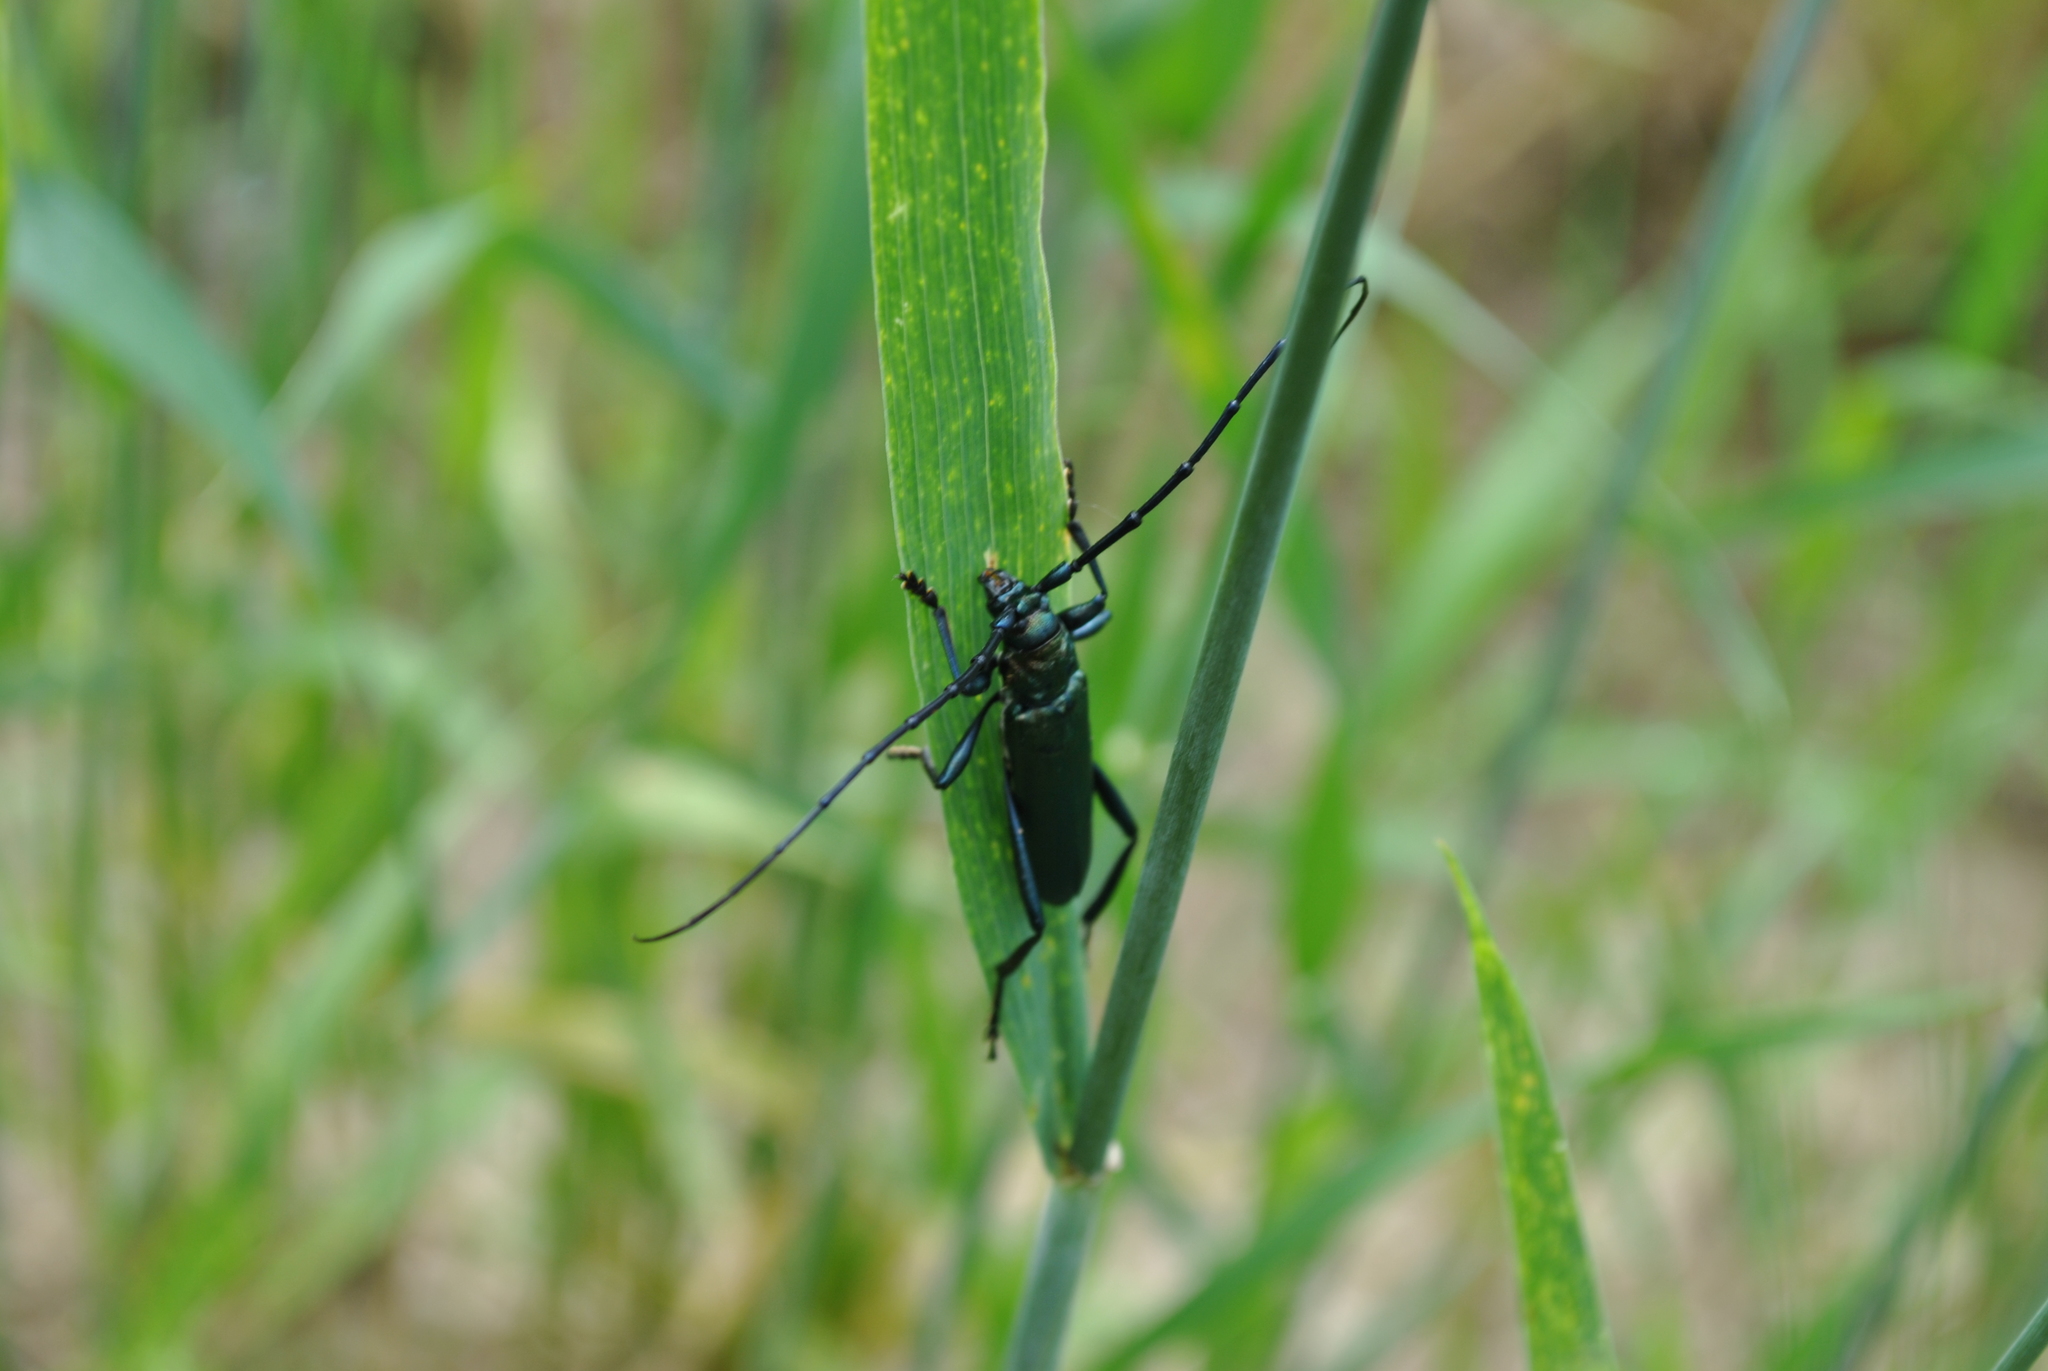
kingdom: Animalia
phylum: Arthropoda
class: Insecta
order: Coleoptera
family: Cerambycidae
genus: Aromia
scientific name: Aromia moschata
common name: Musk beetle
